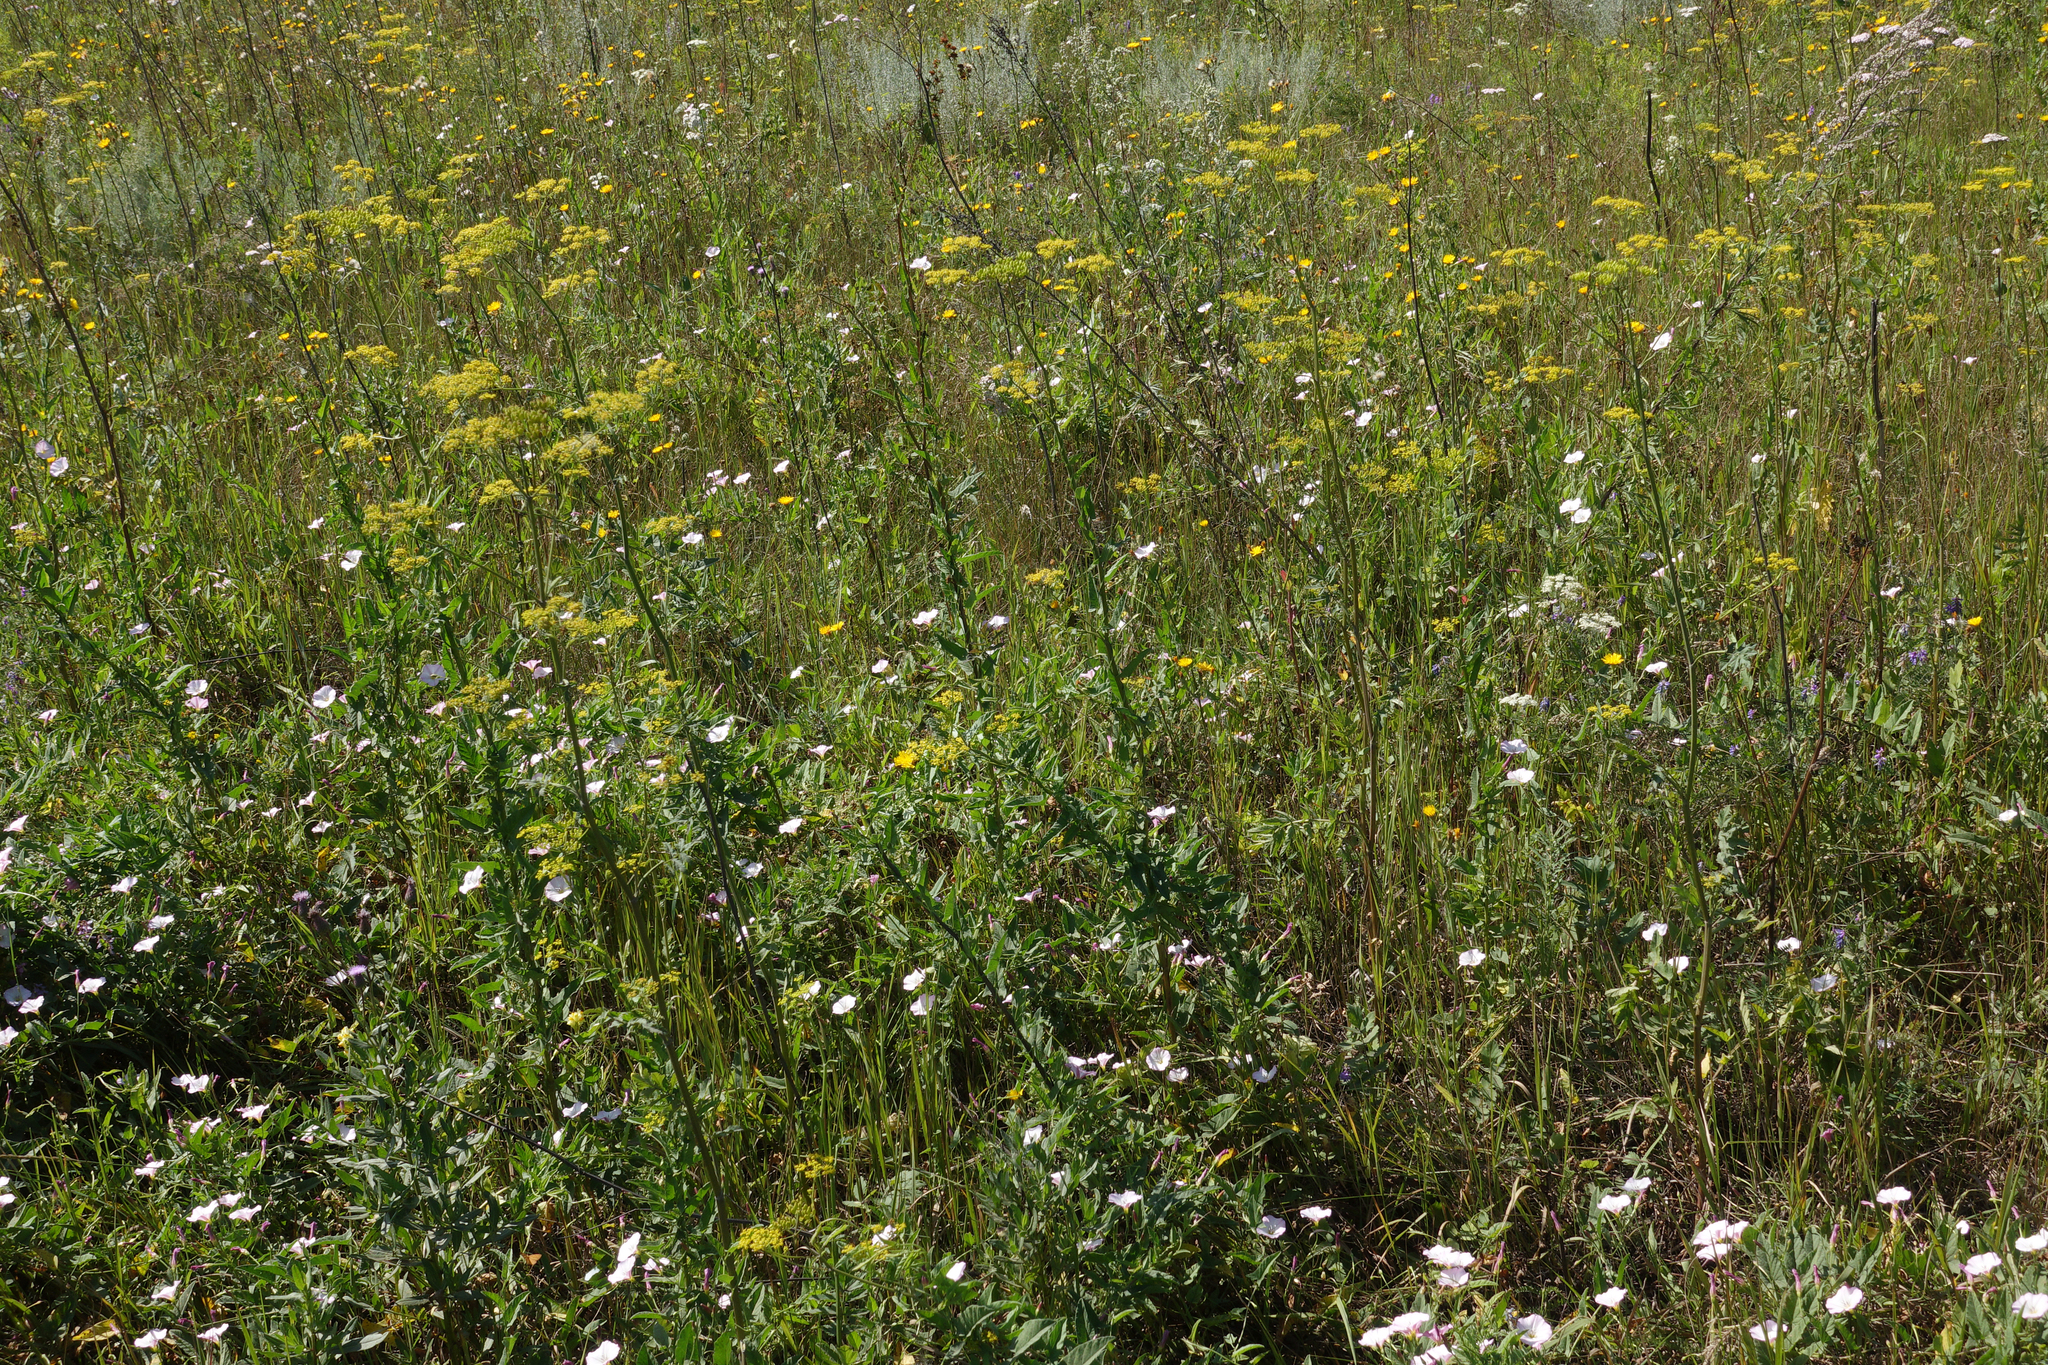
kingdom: Plantae
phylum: Tracheophyta
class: Magnoliopsida
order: Apiales
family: Apiaceae
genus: Peucedanum
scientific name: Peucedanum morisonii
